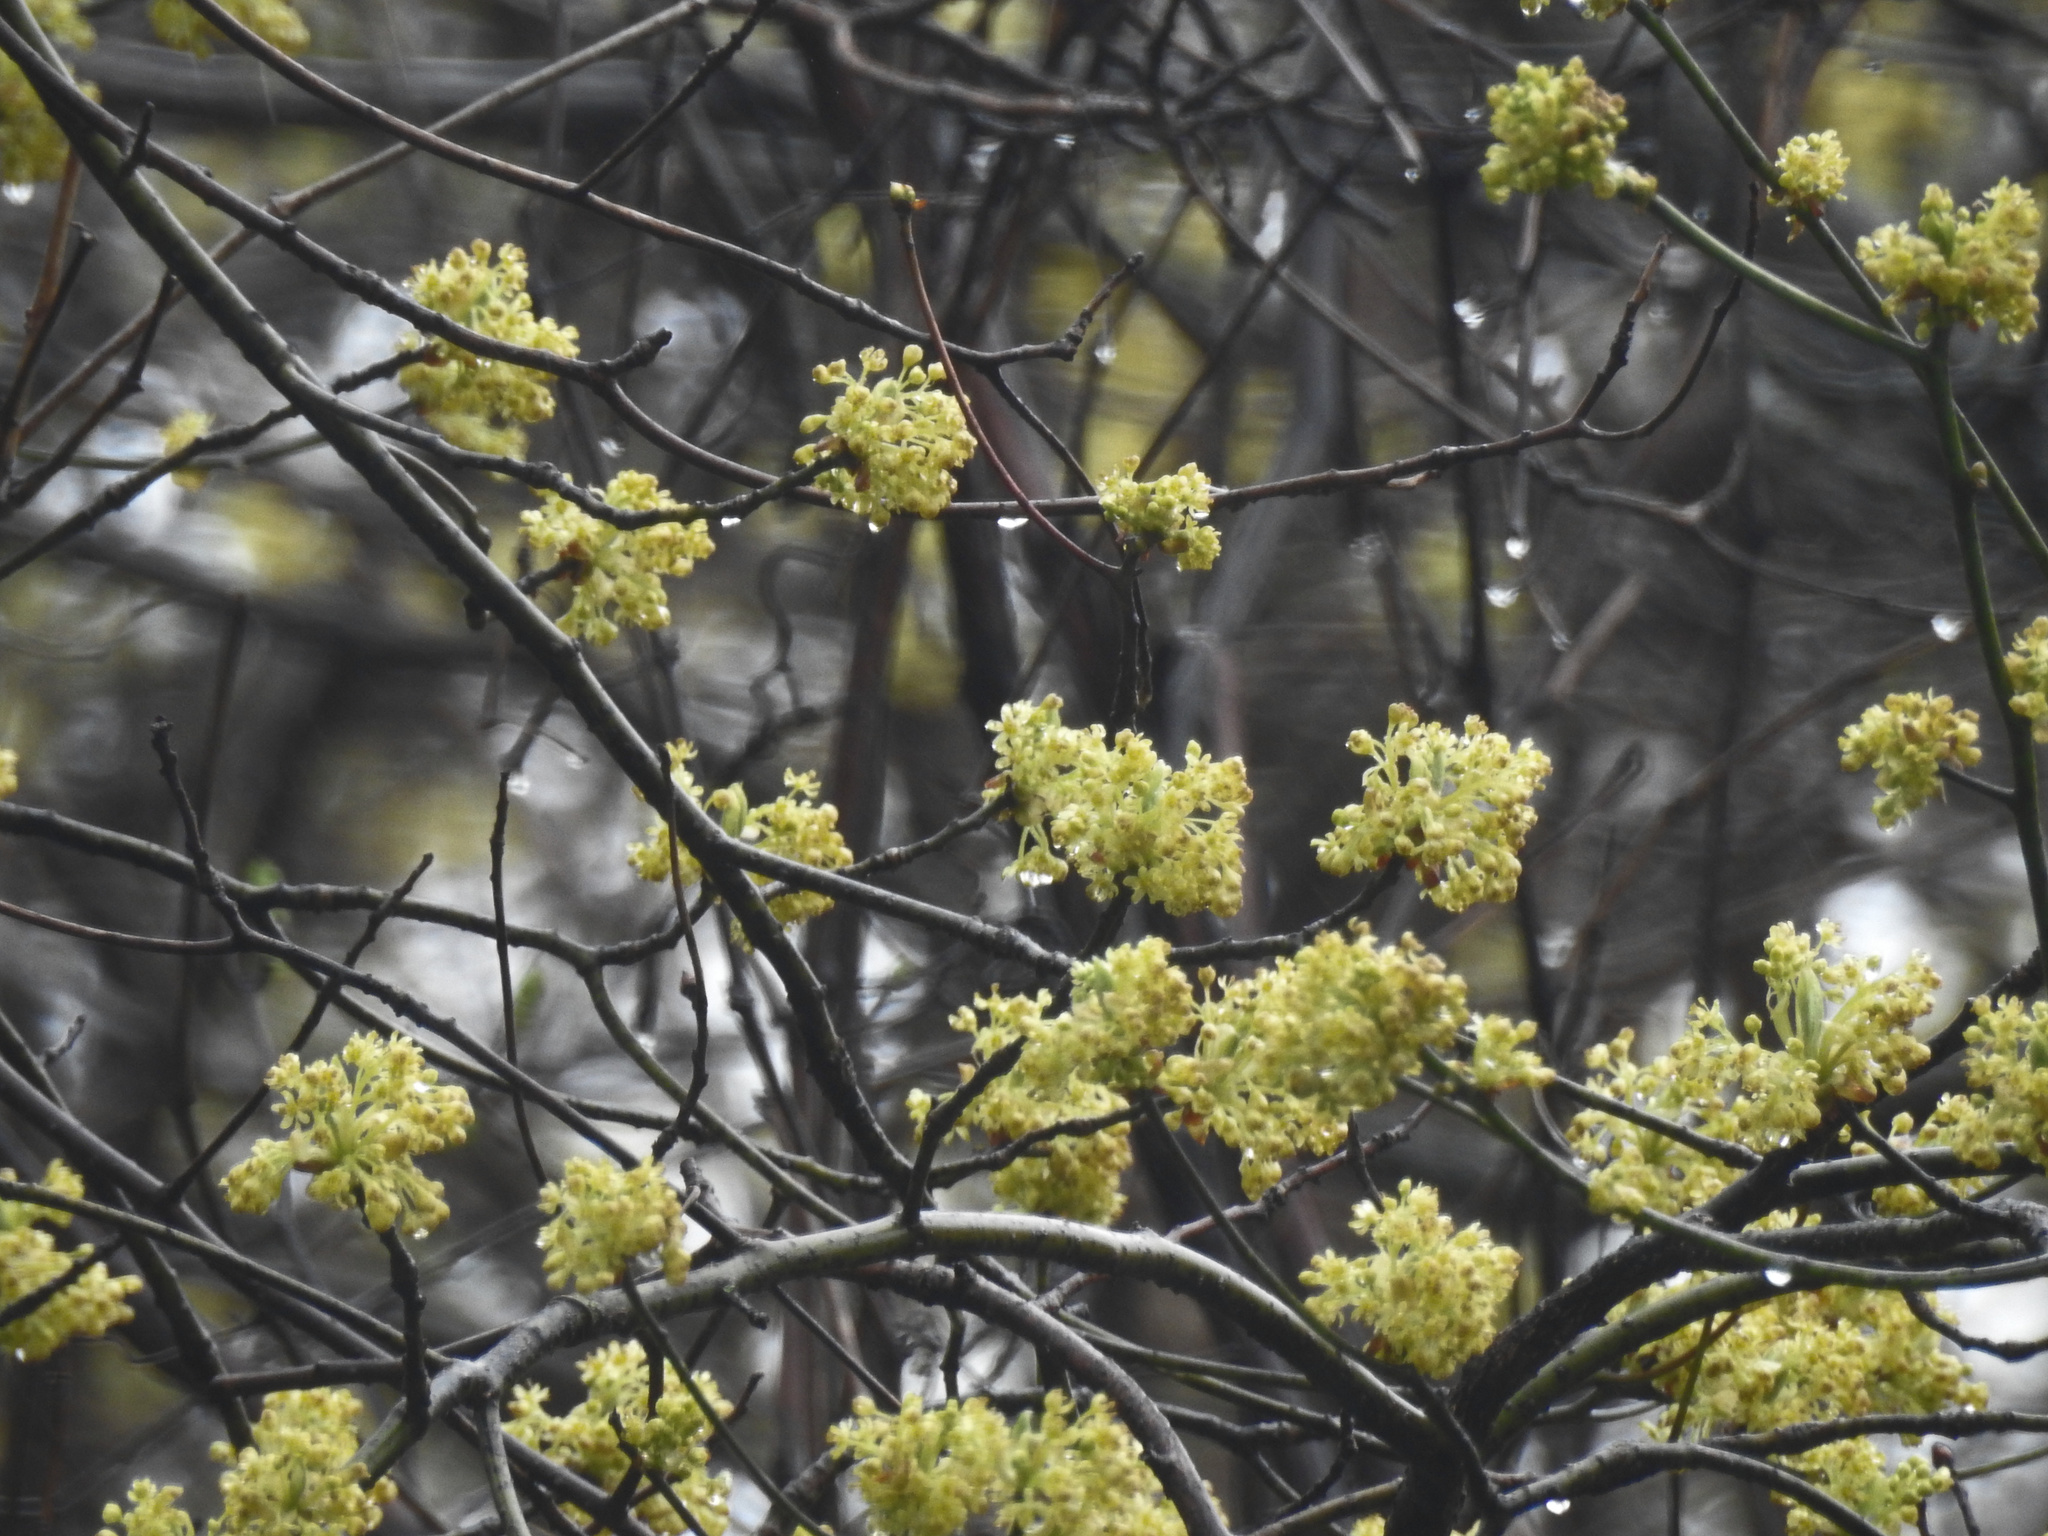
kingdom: Plantae
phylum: Tracheophyta
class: Magnoliopsida
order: Laurales
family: Lauraceae
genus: Sassafras
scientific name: Sassafras albidum
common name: Sassafras
